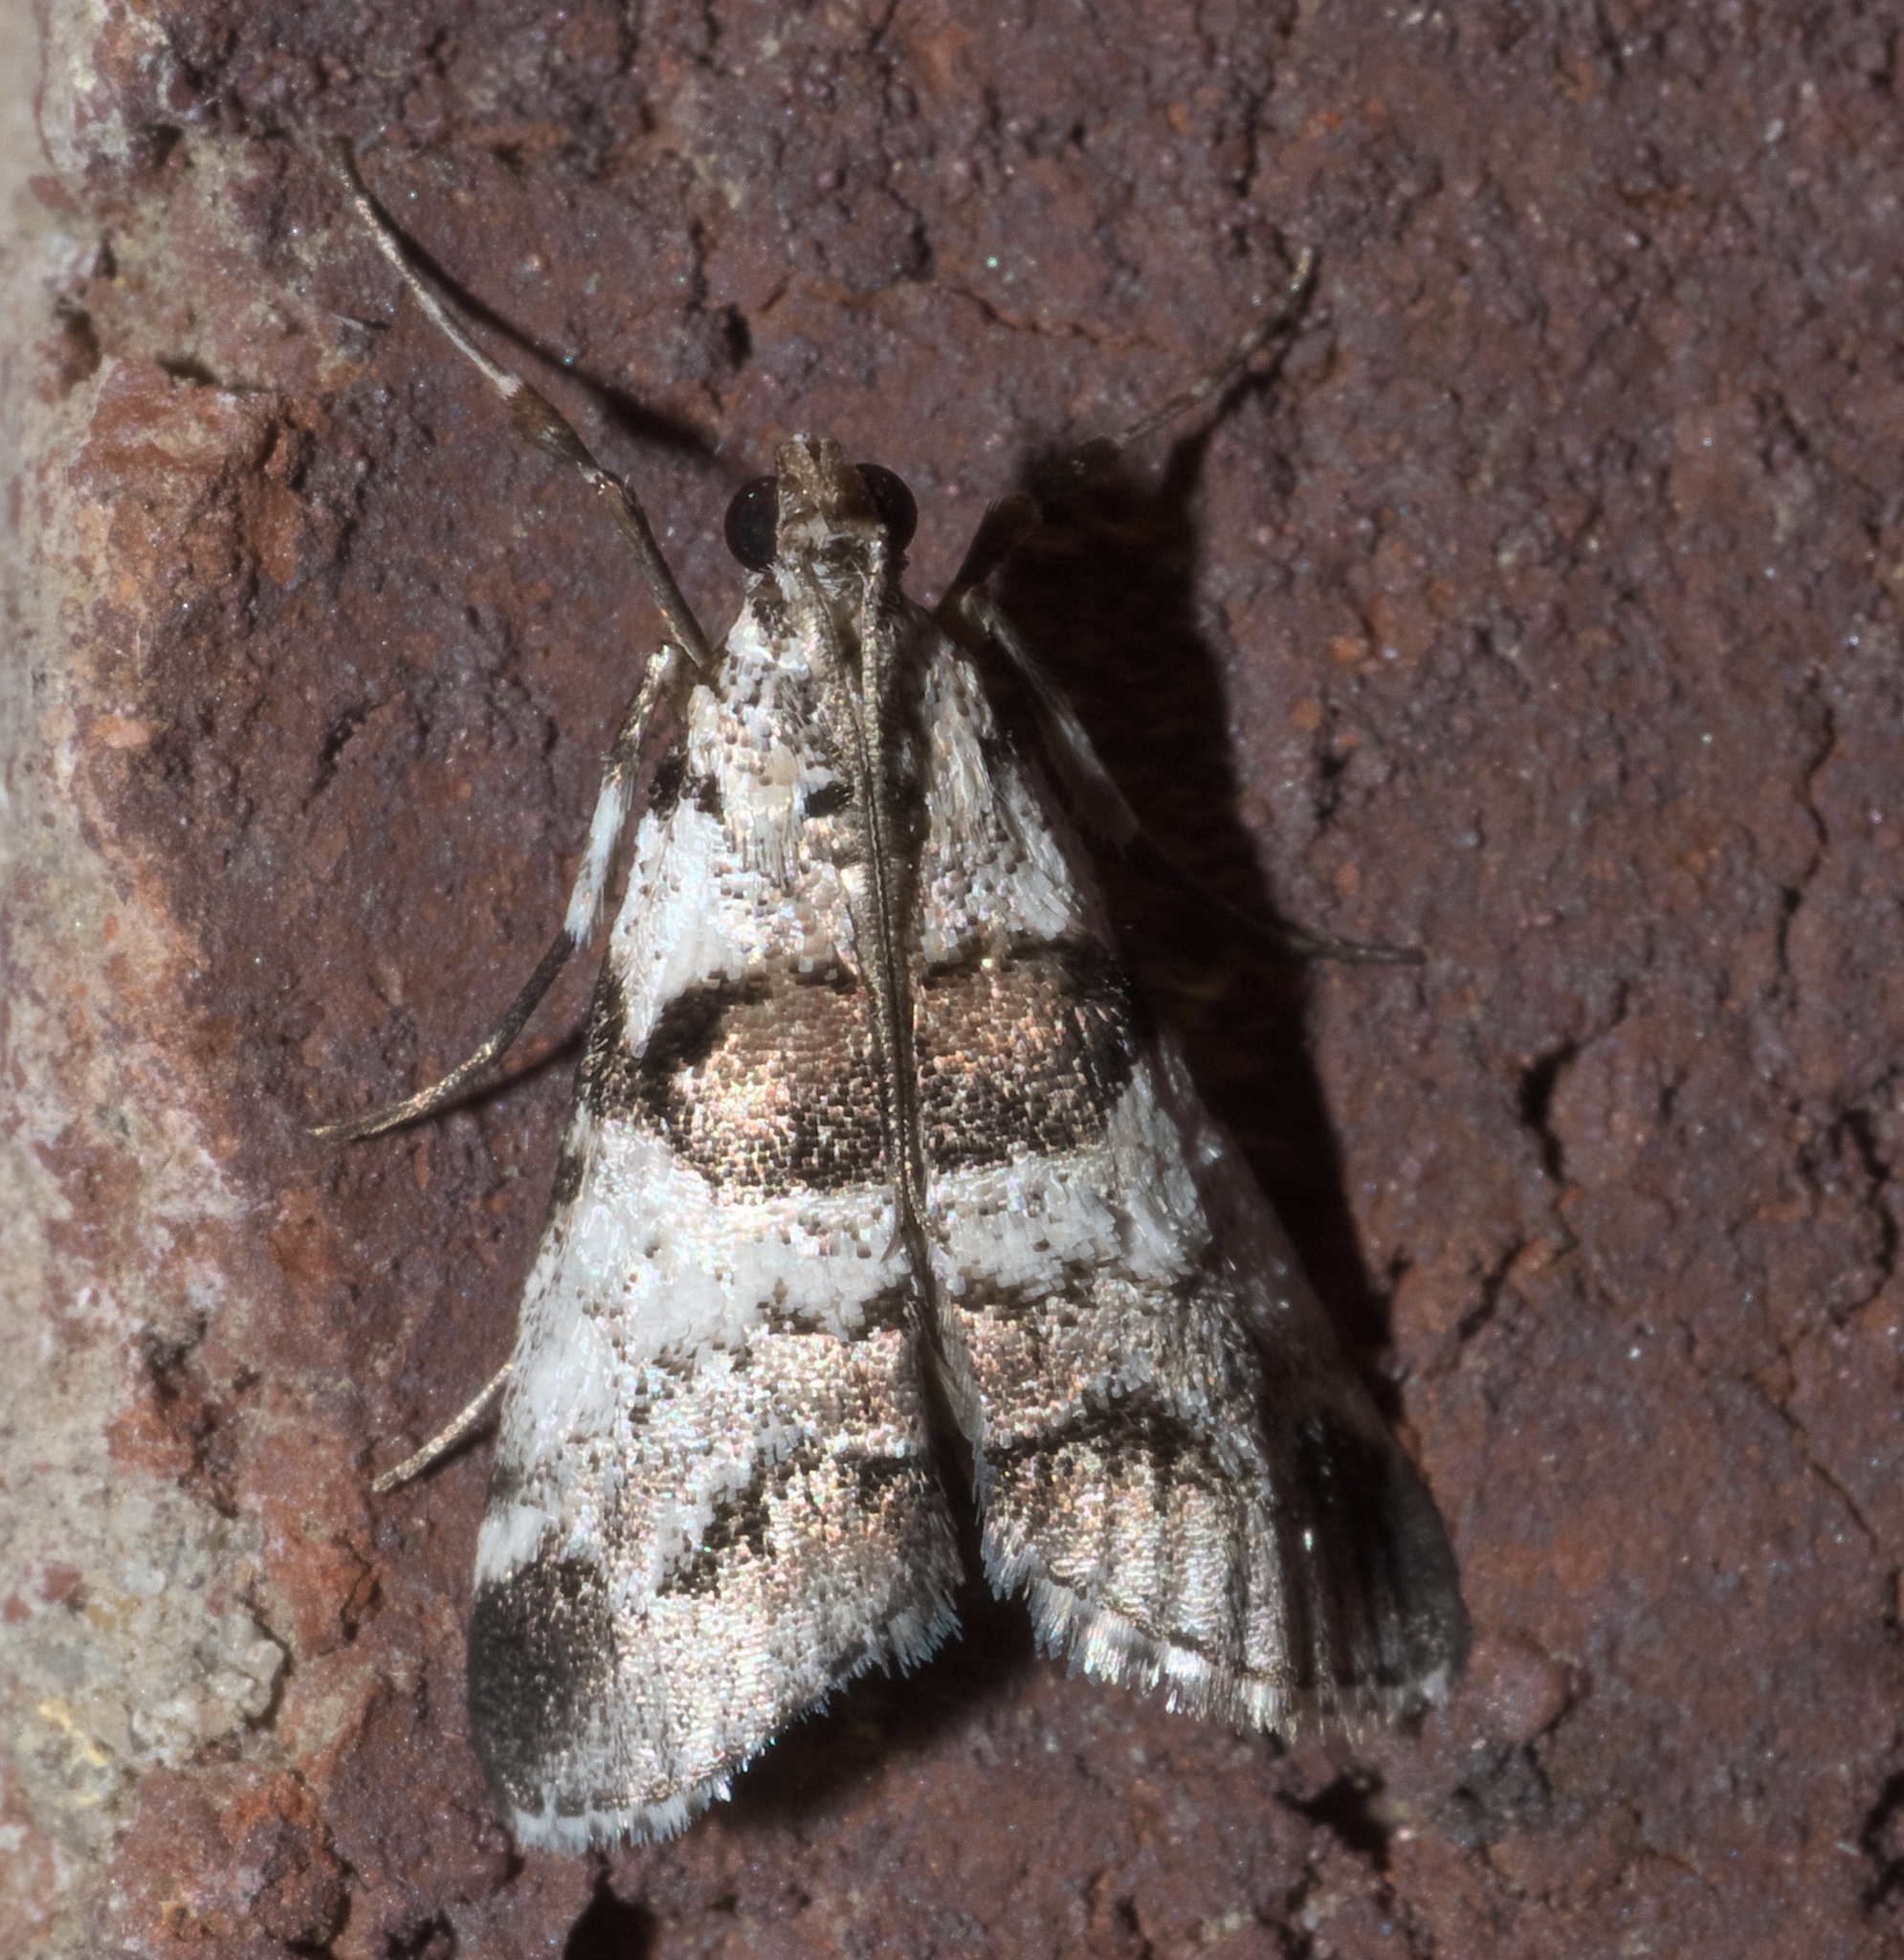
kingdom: Animalia
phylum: Arthropoda
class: Insecta
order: Lepidoptera
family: Pyralidae
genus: Tallula
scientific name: Tallula atrifascialis
